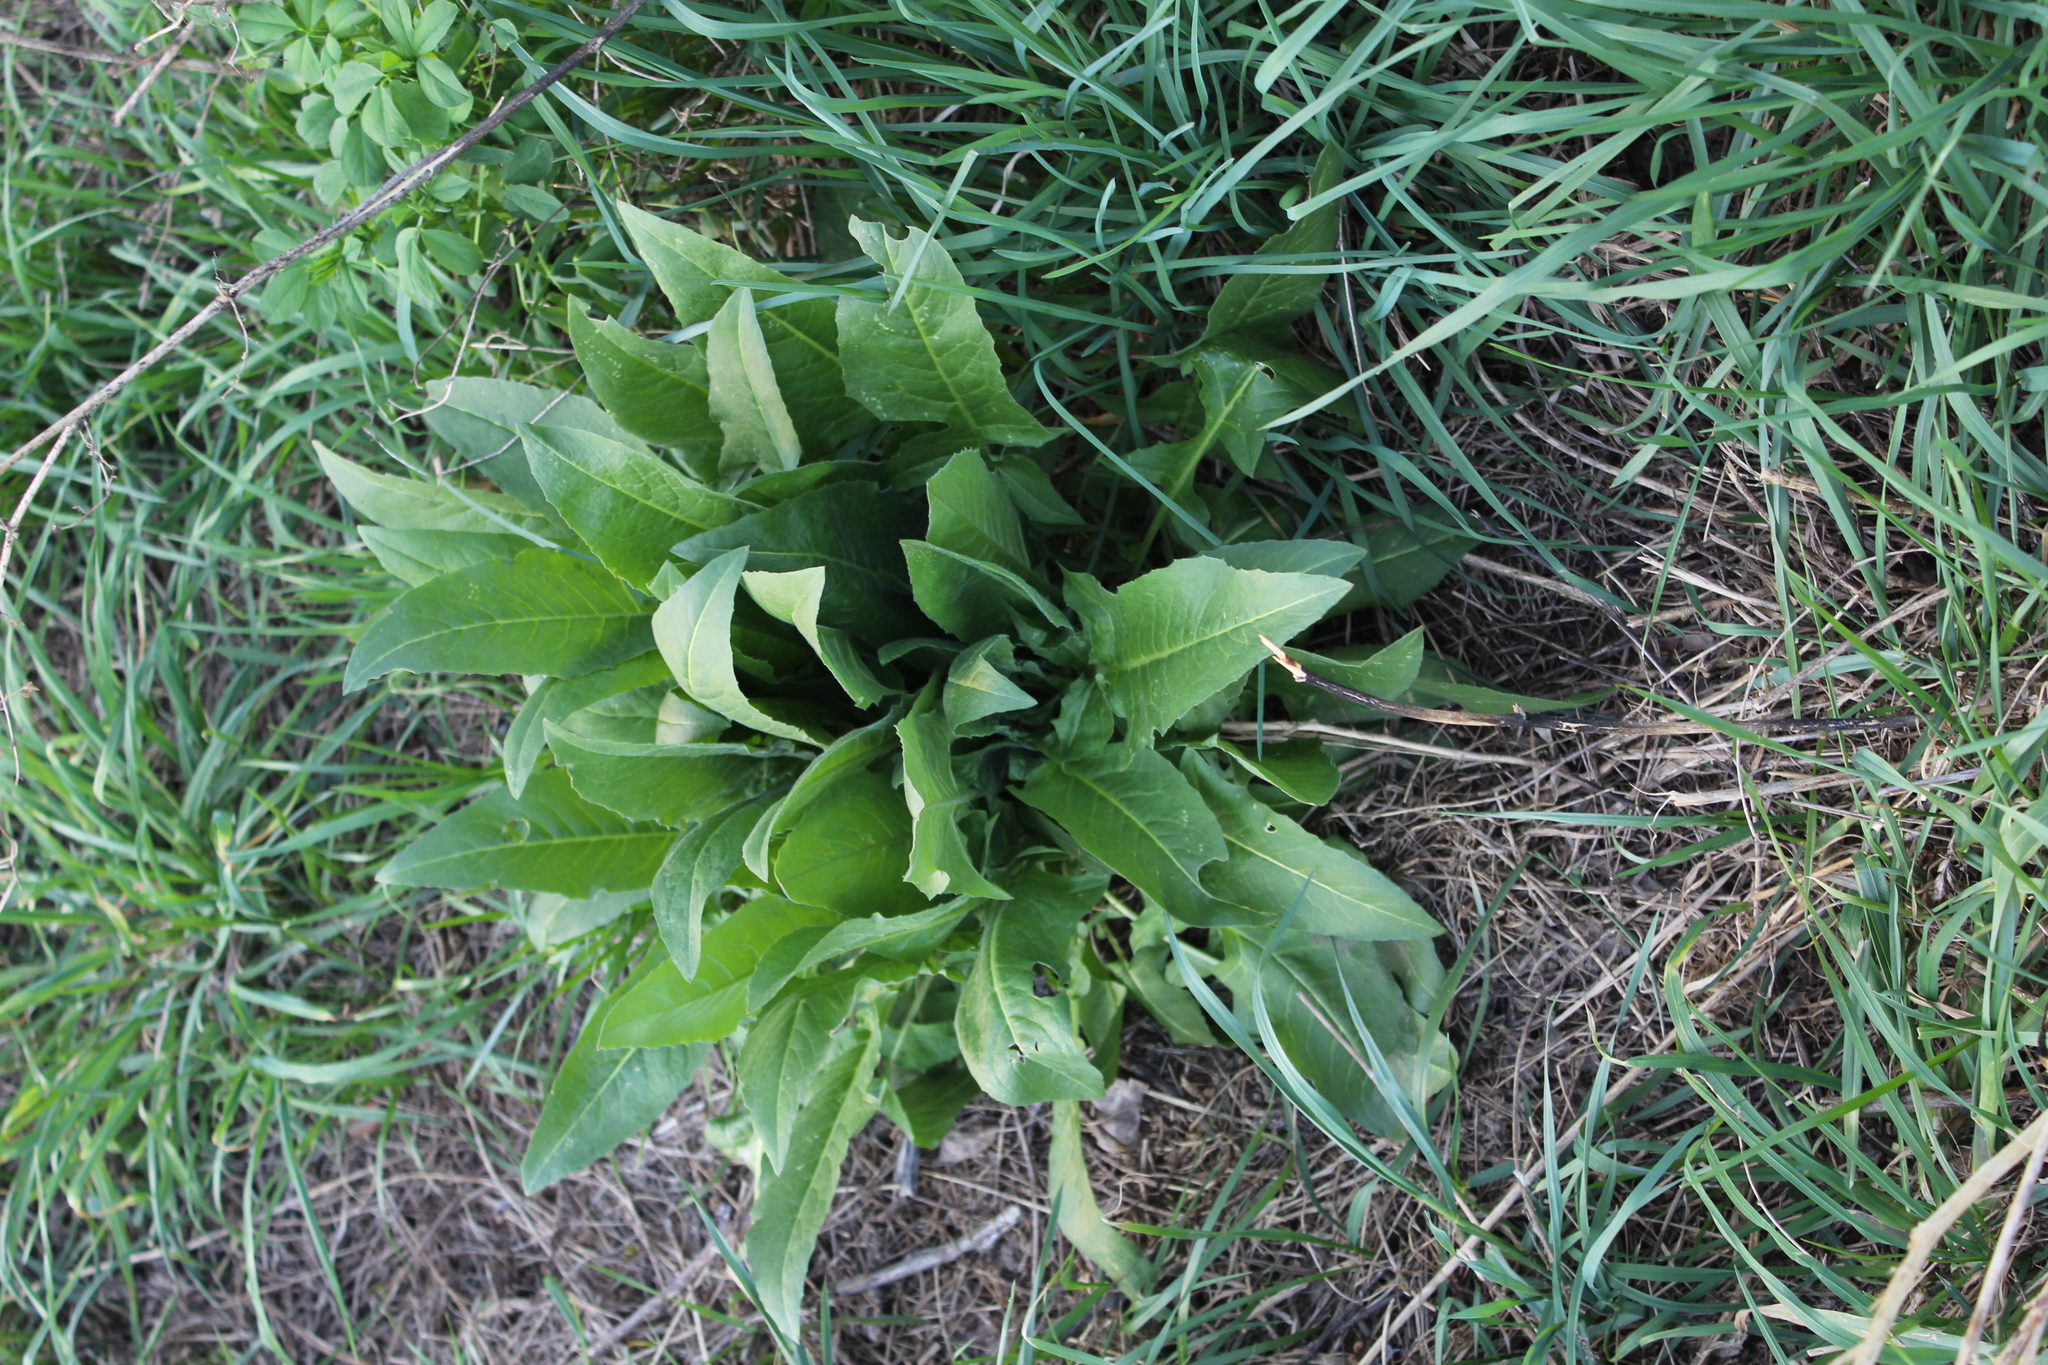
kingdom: Plantae
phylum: Tracheophyta
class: Magnoliopsida
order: Brassicales
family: Brassicaceae
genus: Bunias
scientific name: Bunias orientalis
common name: Warty-cabbage
